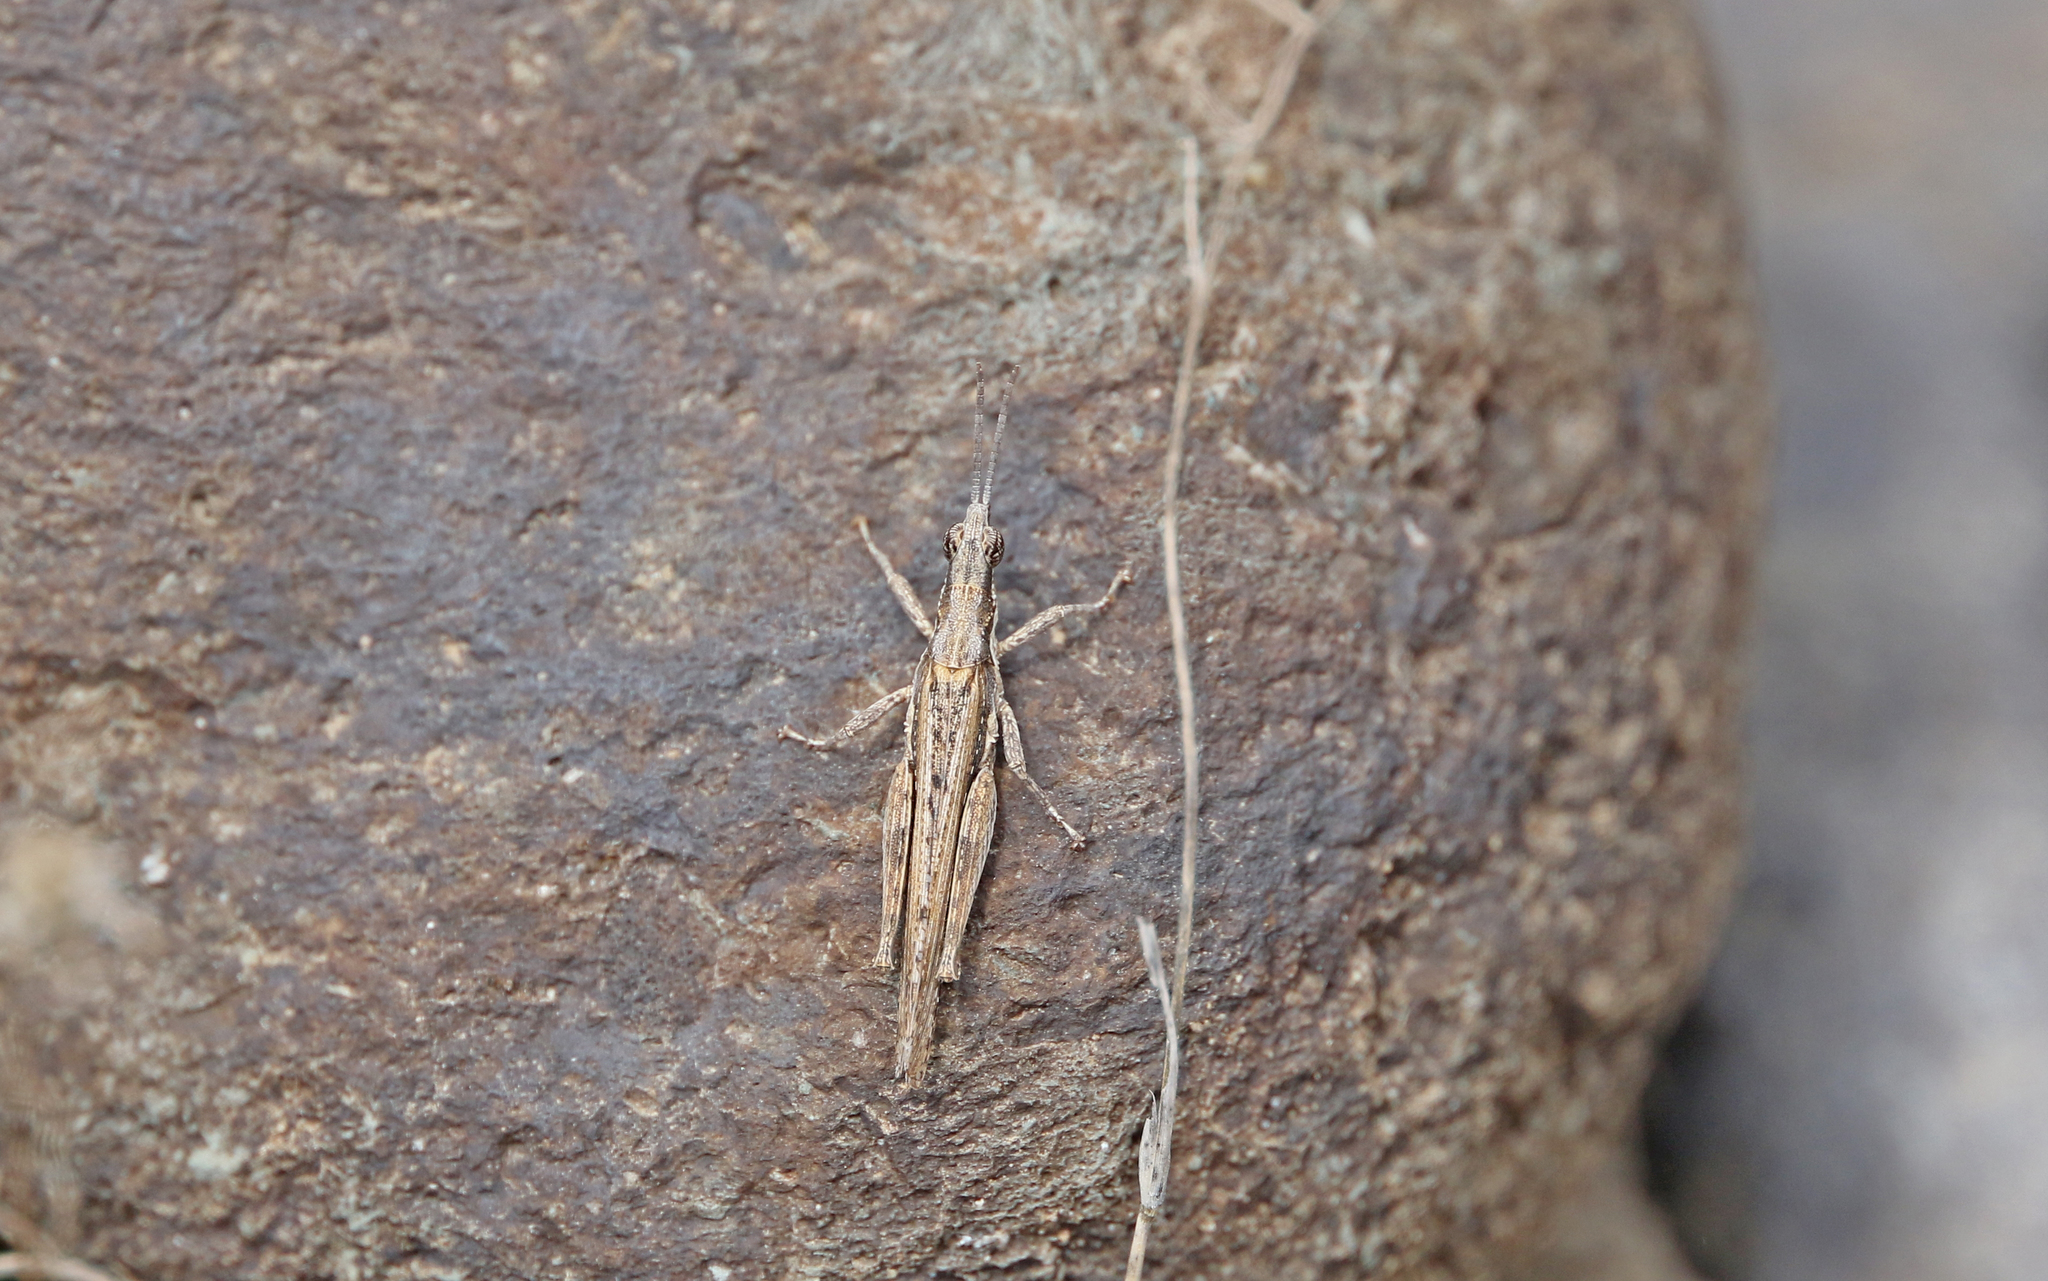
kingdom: Animalia
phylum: Arthropoda
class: Insecta
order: Orthoptera
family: Pyrgomorphidae
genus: Pyrgomorpha
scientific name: Pyrgomorpha conica
